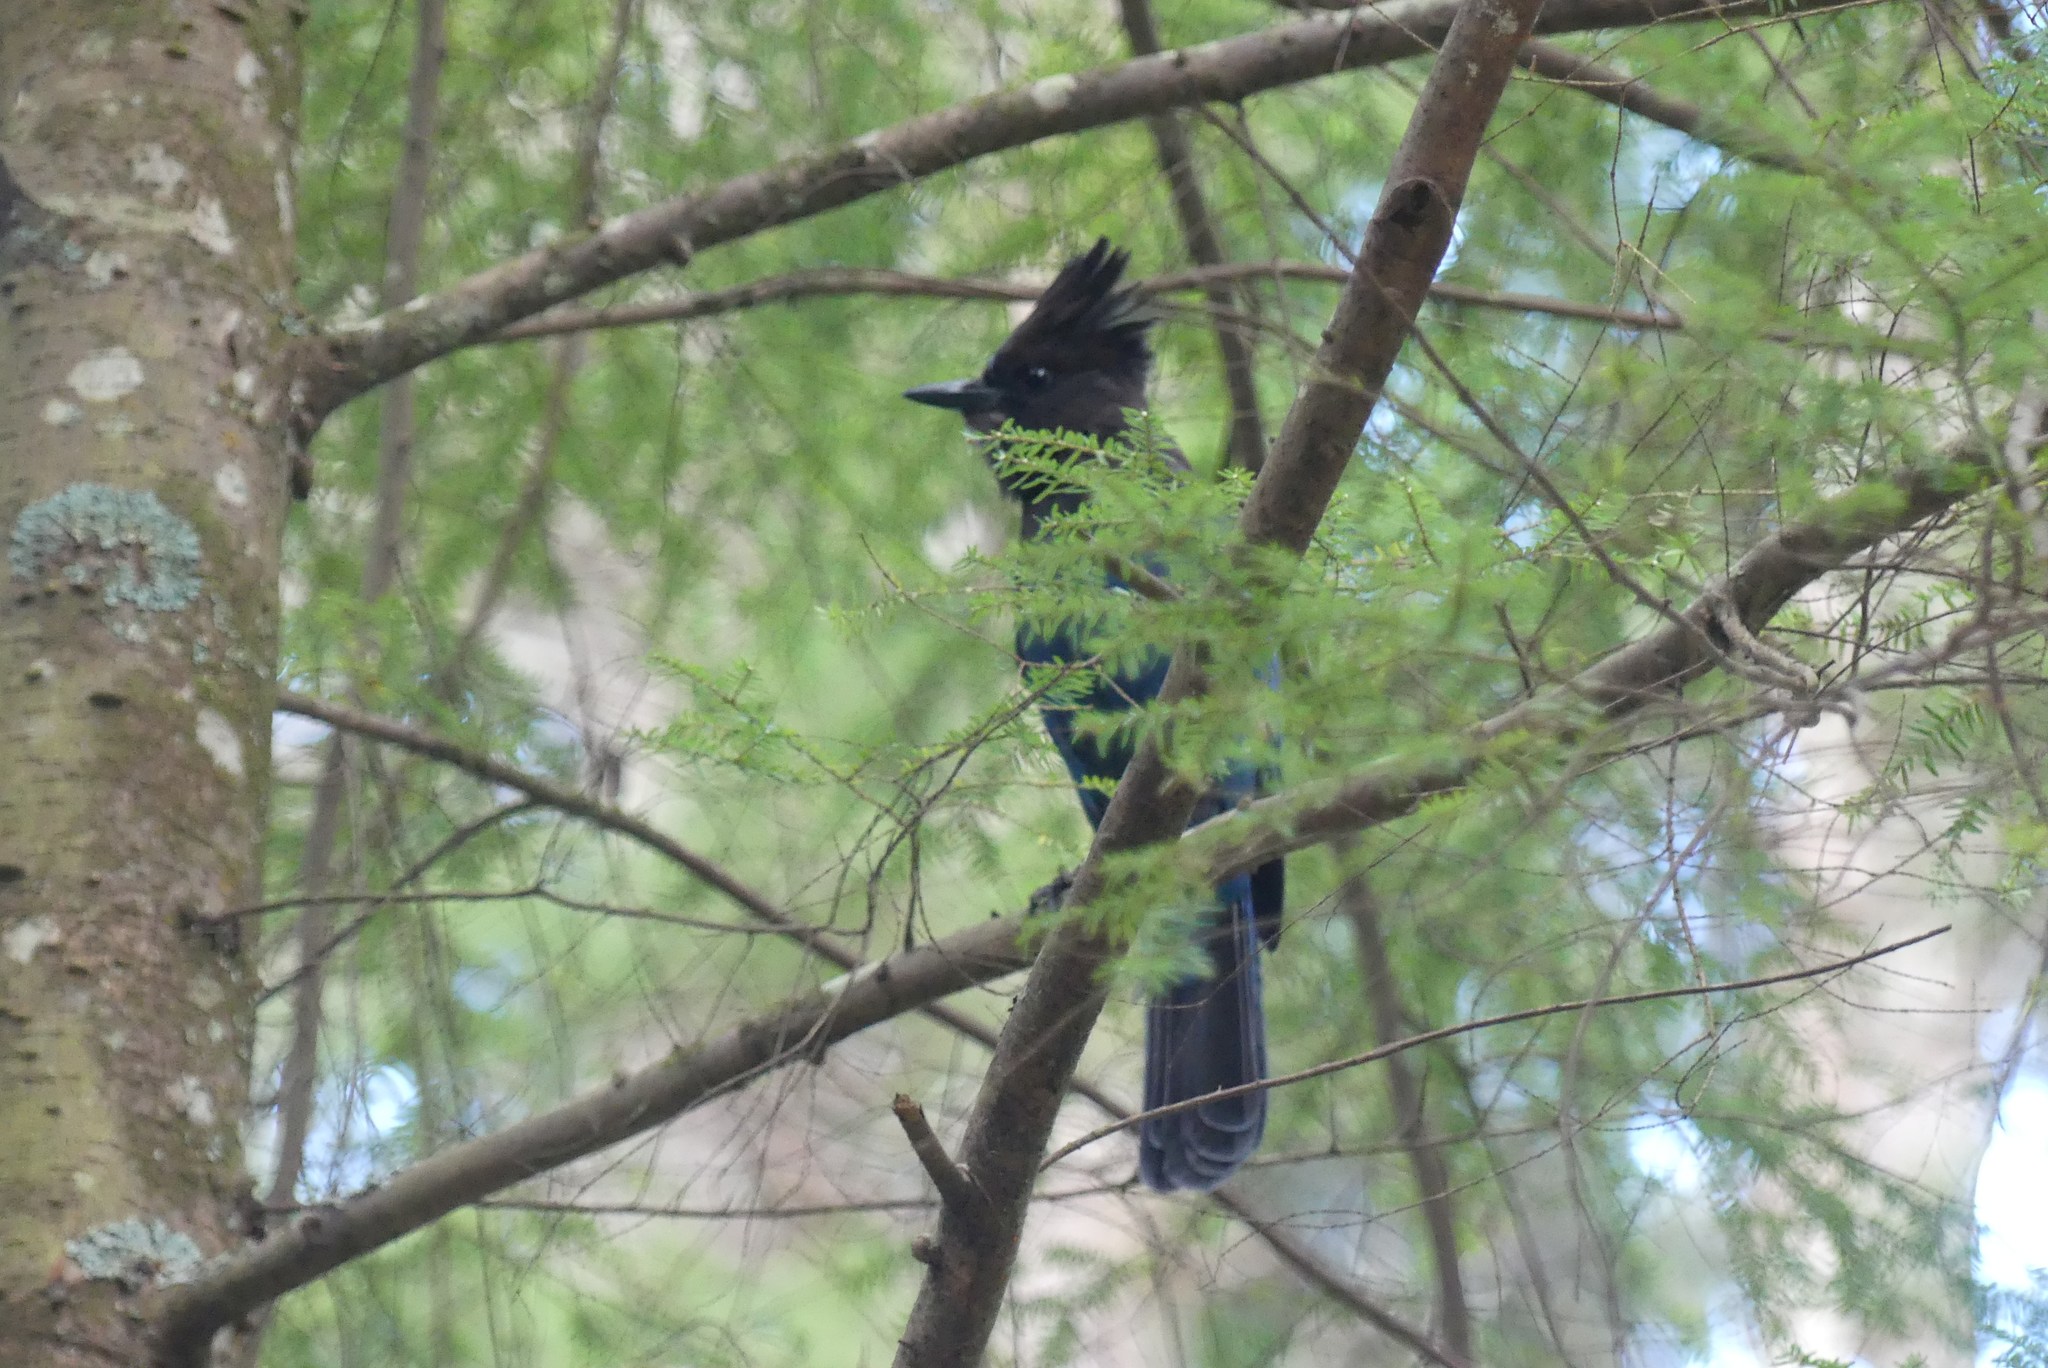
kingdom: Animalia
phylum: Chordata
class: Aves
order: Passeriformes
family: Corvidae
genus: Cyanocitta
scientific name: Cyanocitta stelleri
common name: Steller's jay
